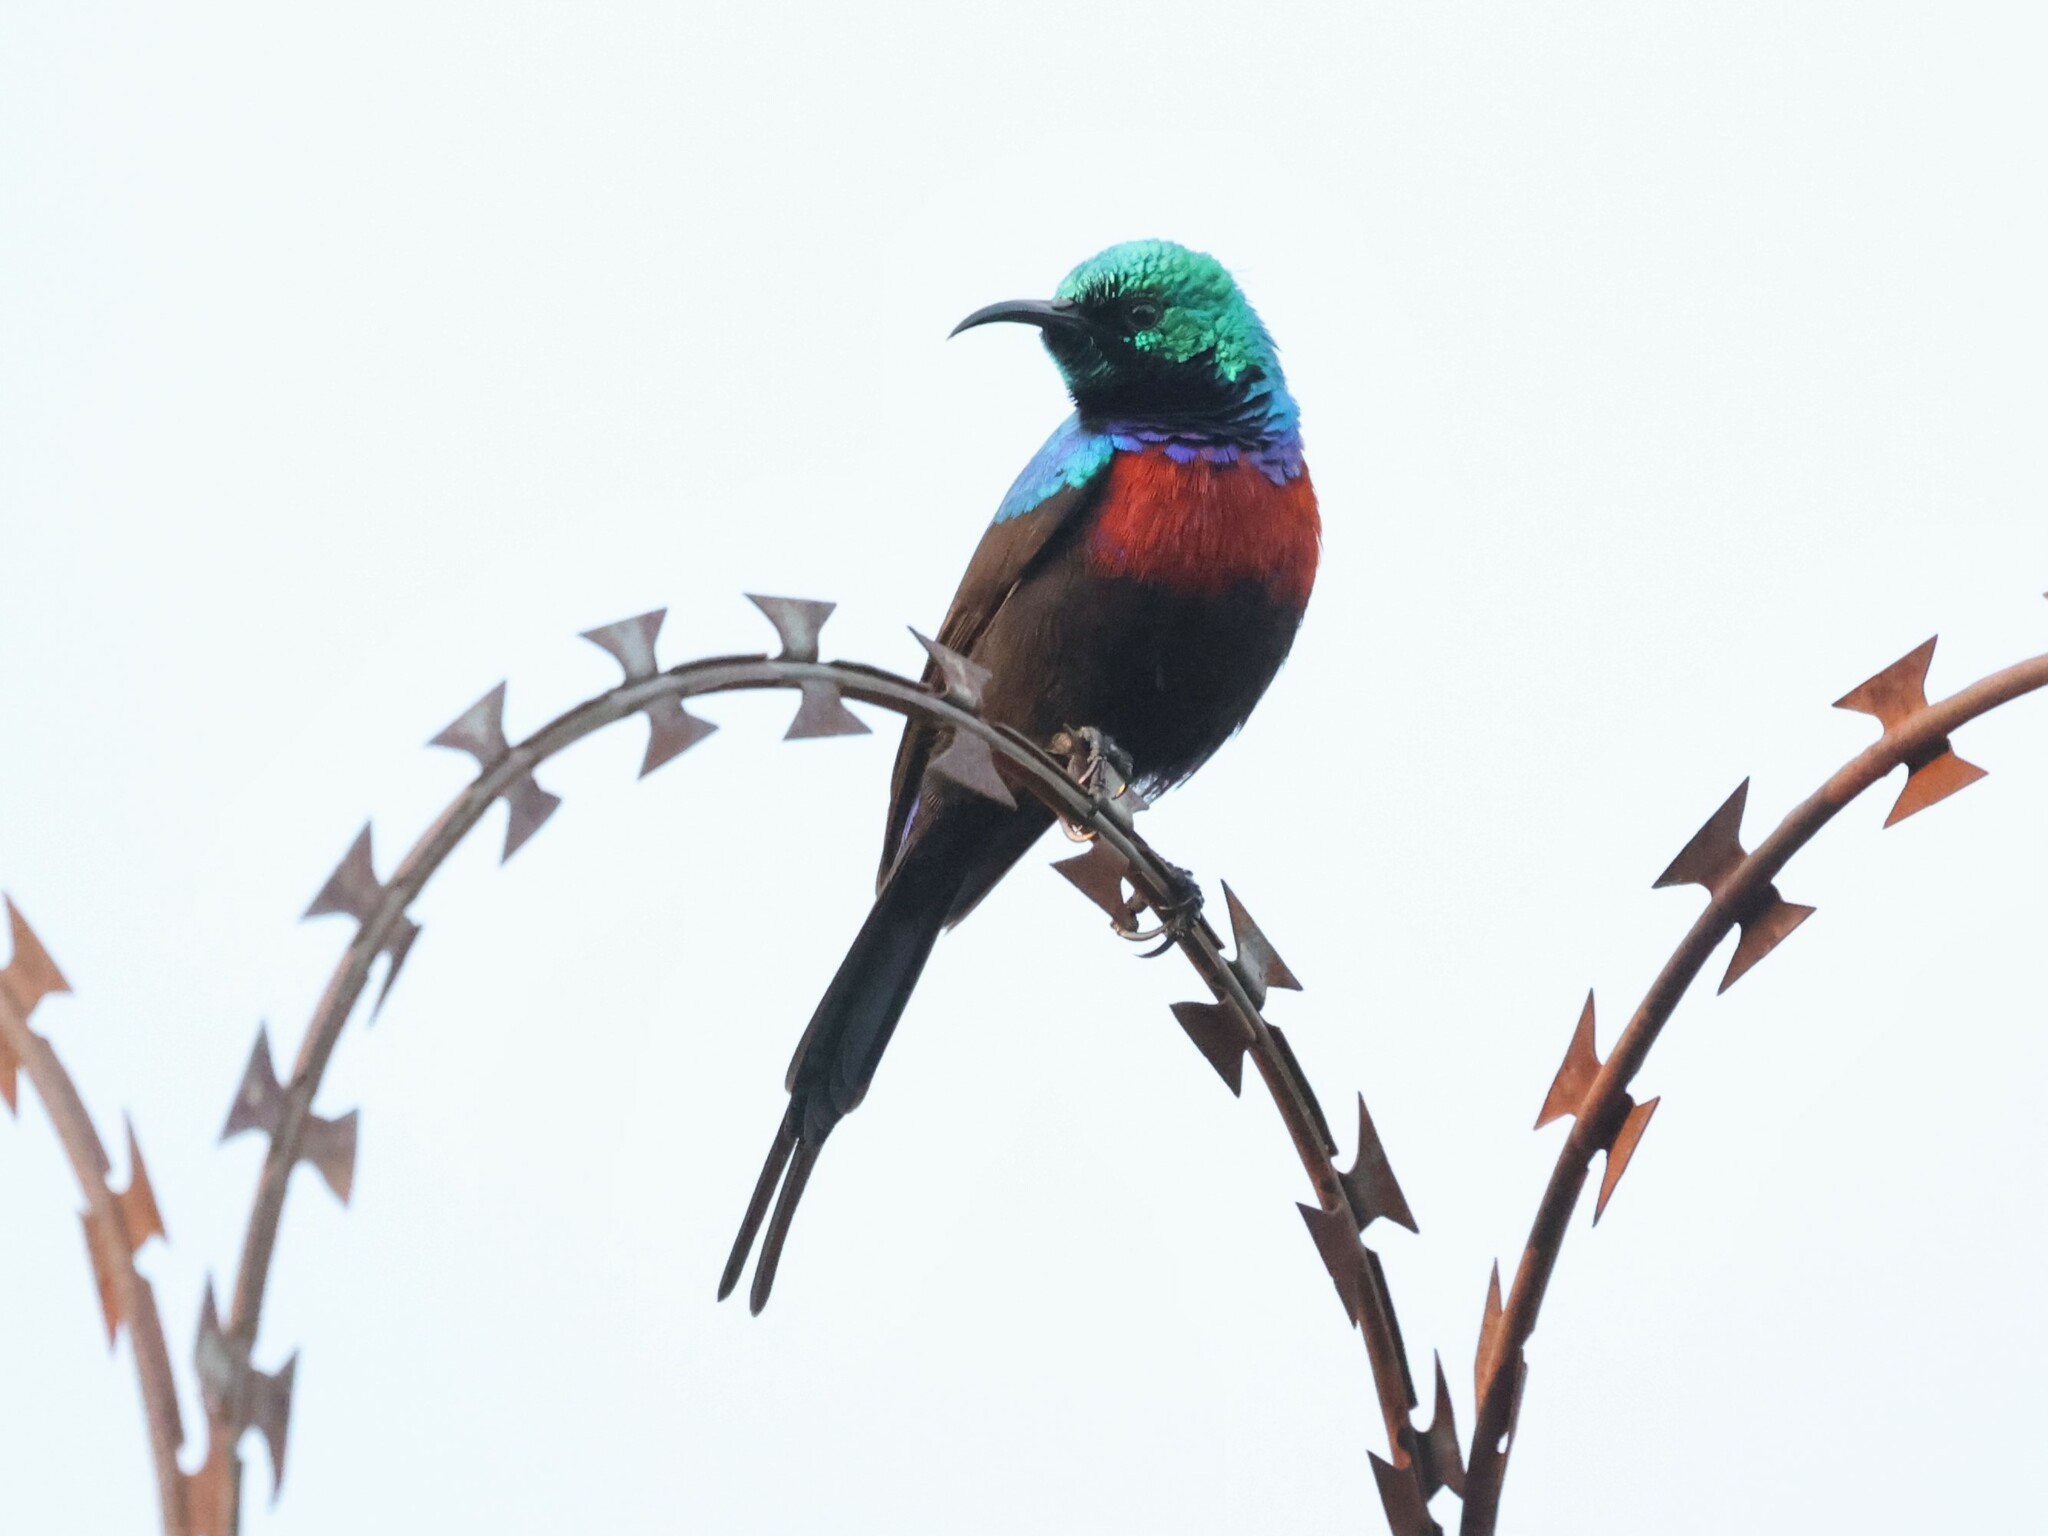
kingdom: Animalia
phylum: Chordata
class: Aves
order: Passeriformes
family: Nectariniidae
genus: Cinnyris
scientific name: Cinnyris erythrocercus
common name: Red-chested sunbird
